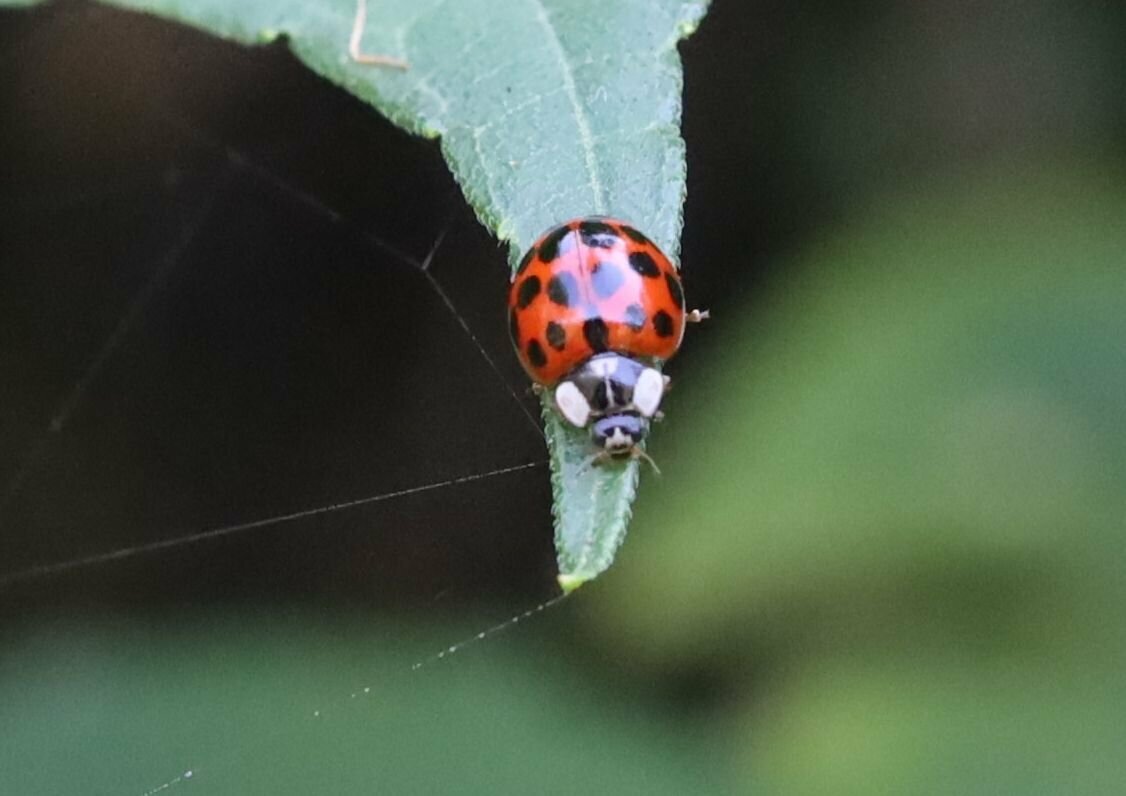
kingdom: Animalia
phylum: Arthropoda
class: Insecta
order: Coleoptera
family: Coccinellidae
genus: Harmonia
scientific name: Harmonia axyridis
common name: Harlequin ladybird
